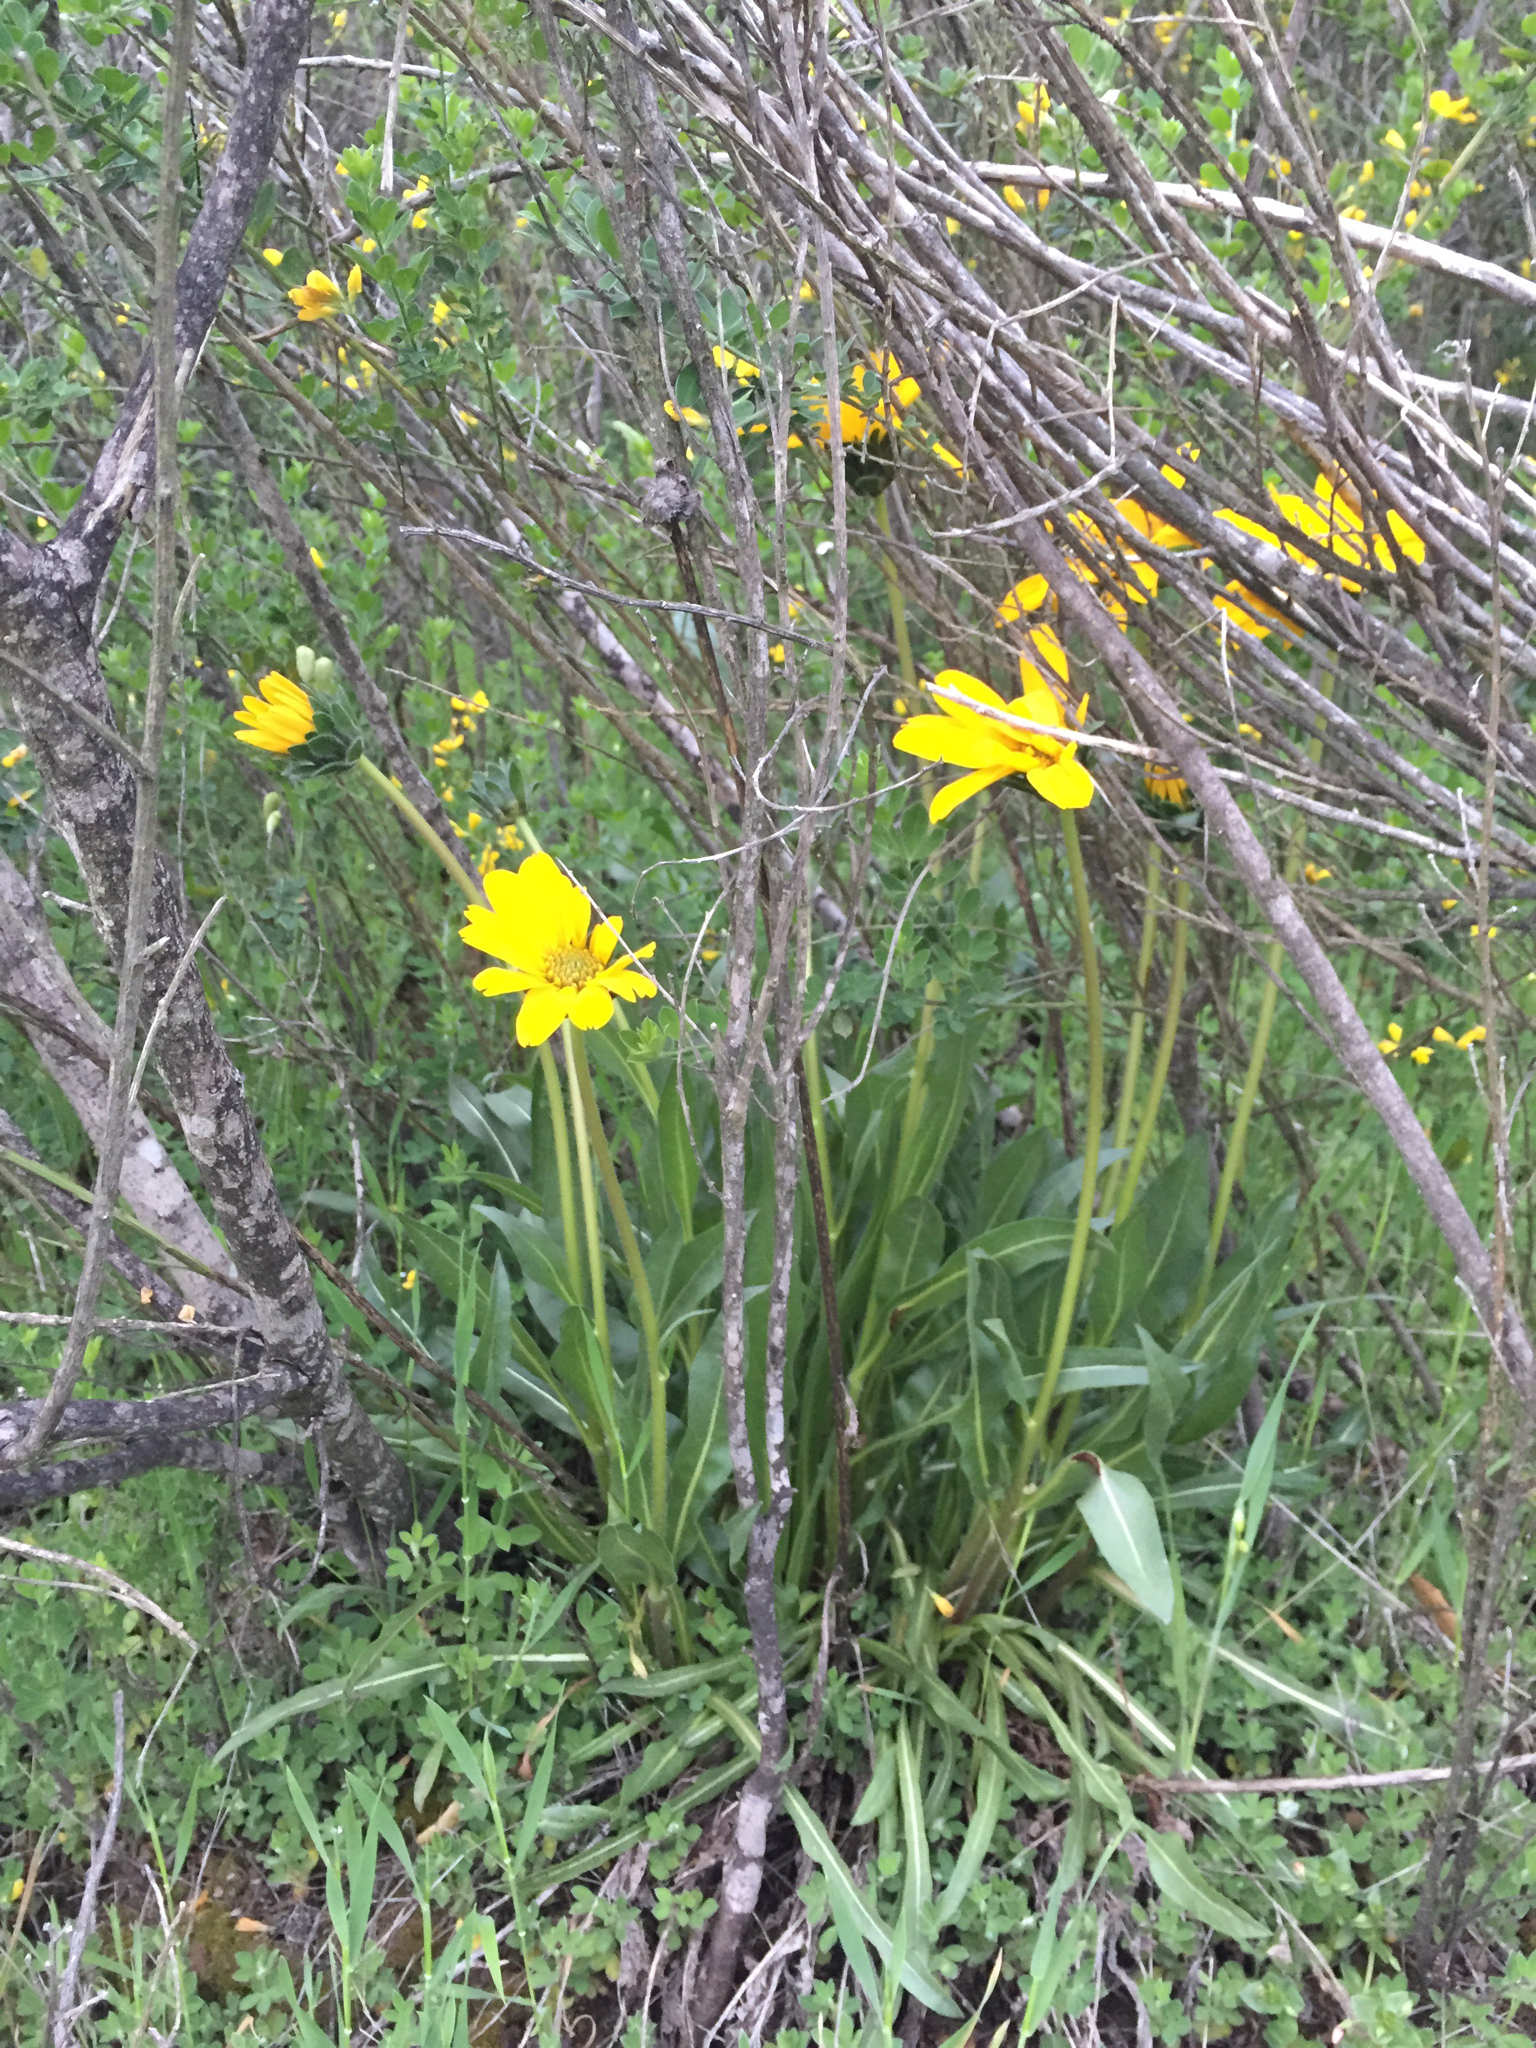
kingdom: Plantae
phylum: Tracheophyta
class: Magnoliopsida
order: Asterales
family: Asteraceae
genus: Wyethia
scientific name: Wyethia angustifolia
